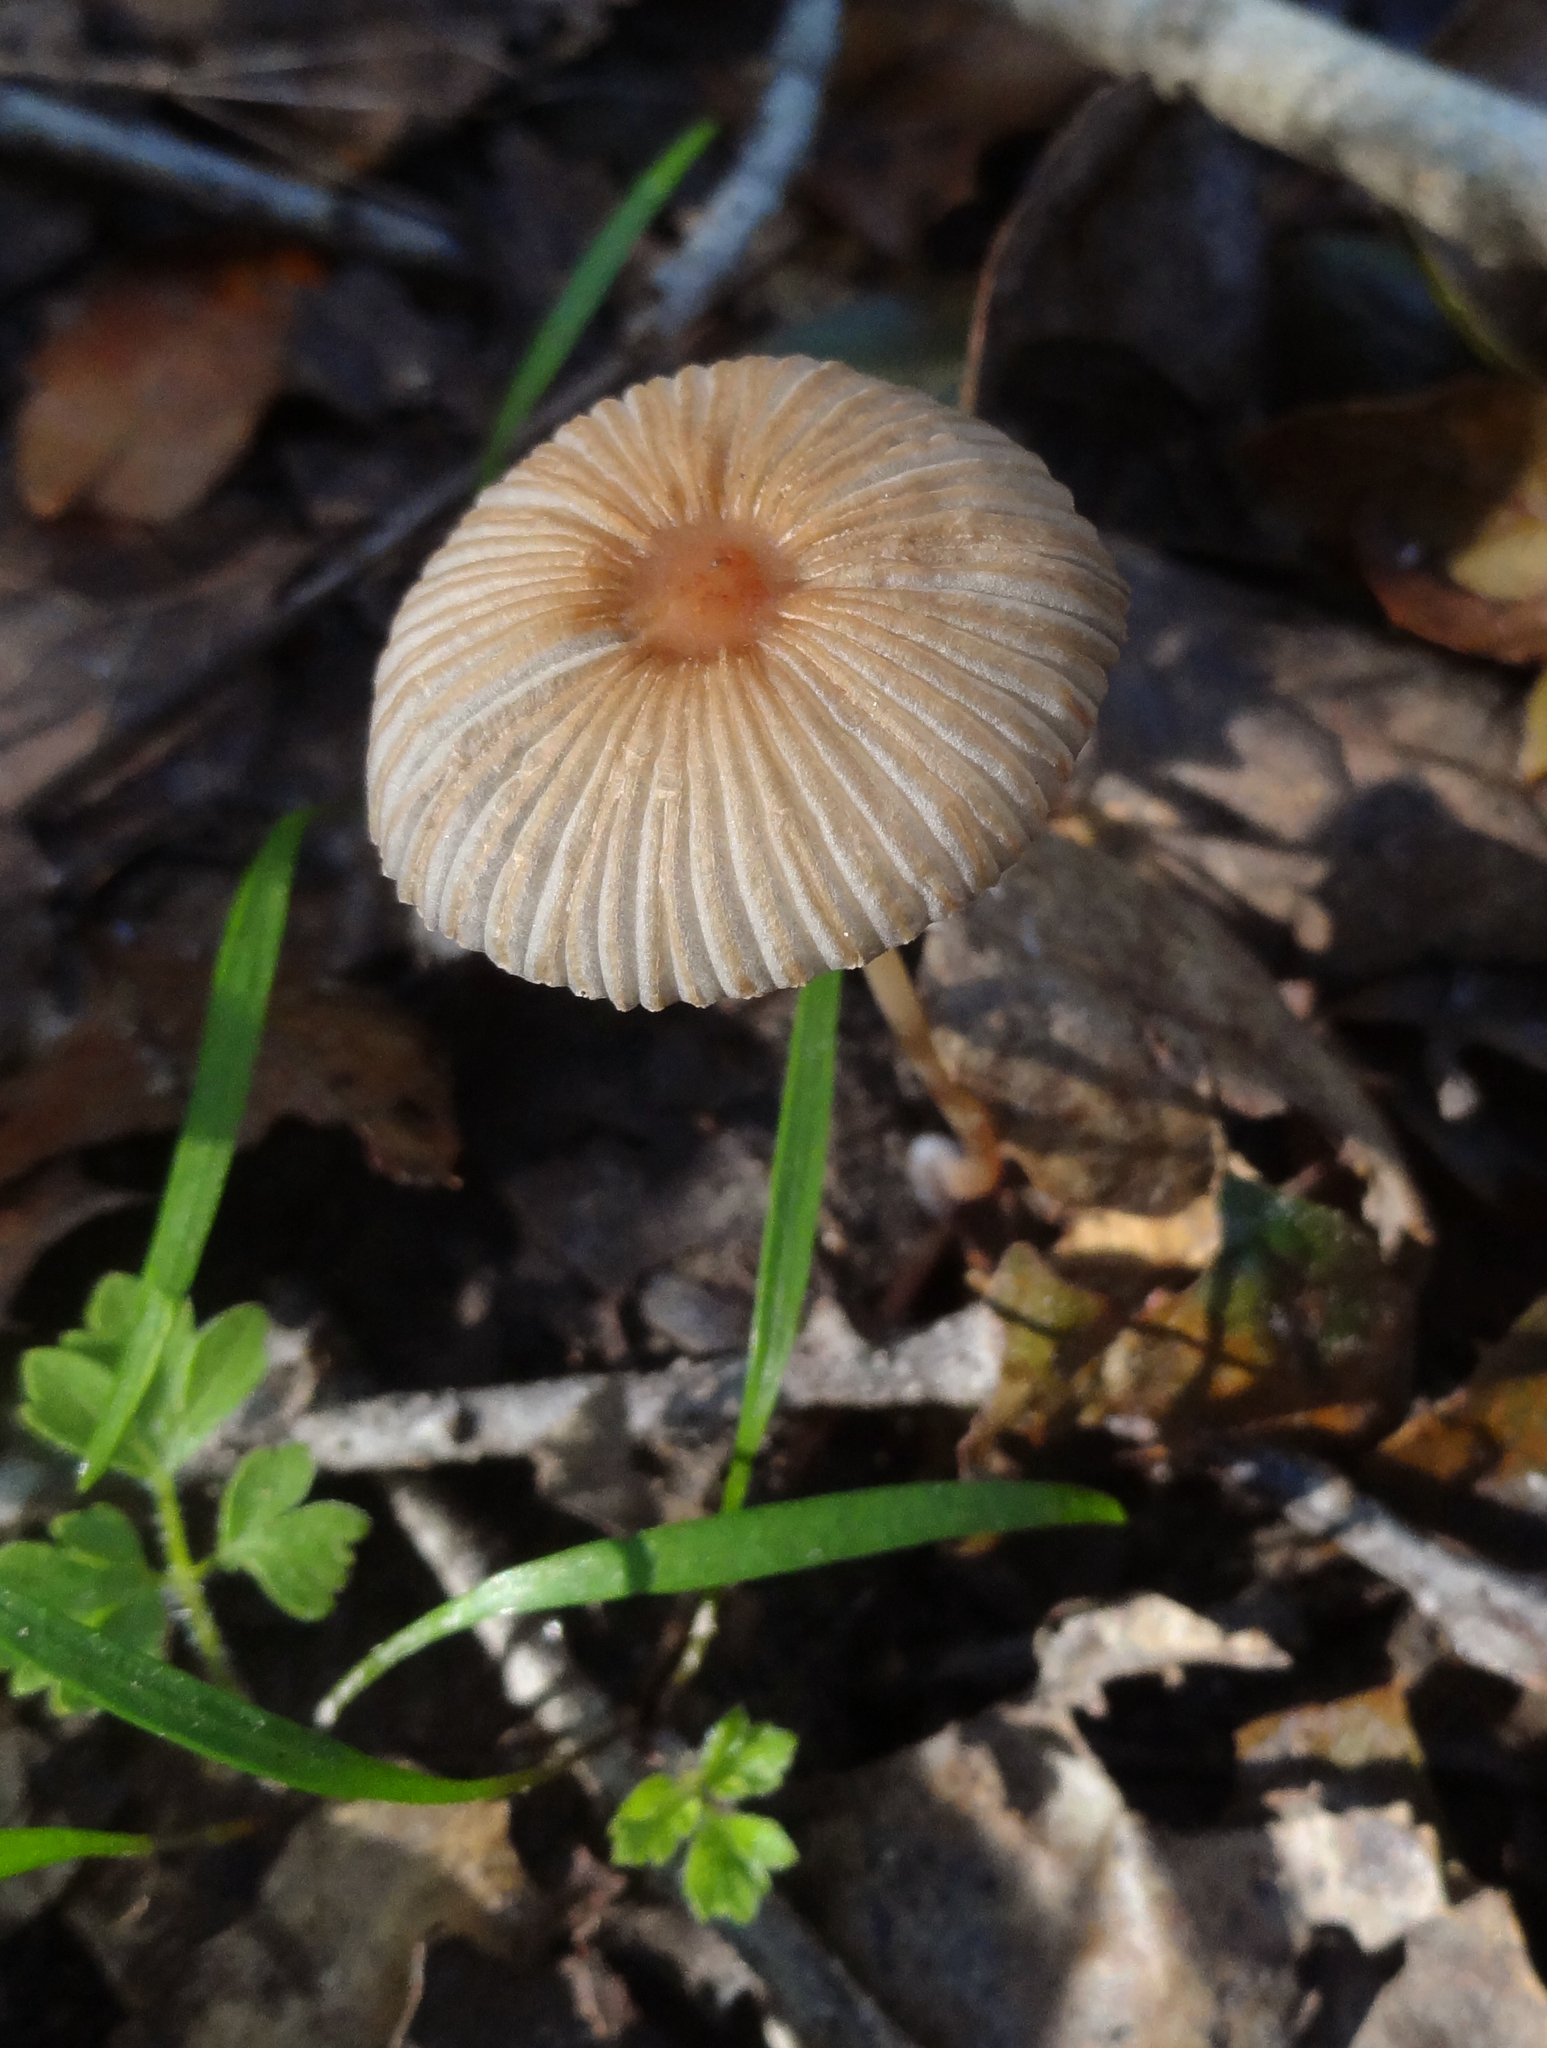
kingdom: Fungi
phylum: Basidiomycota
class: Agaricomycetes
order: Agaricales
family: Psathyrellaceae
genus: Parasola
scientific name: Parasola auricoma
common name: Goldenhaired inkcap
